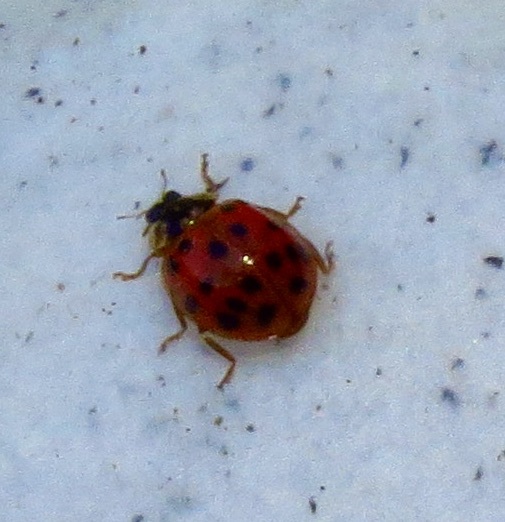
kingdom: Animalia
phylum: Arthropoda
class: Insecta
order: Coleoptera
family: Coccinellidae
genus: Harmonia
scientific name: Harmonia axyridis
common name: Harlequin ladybird
